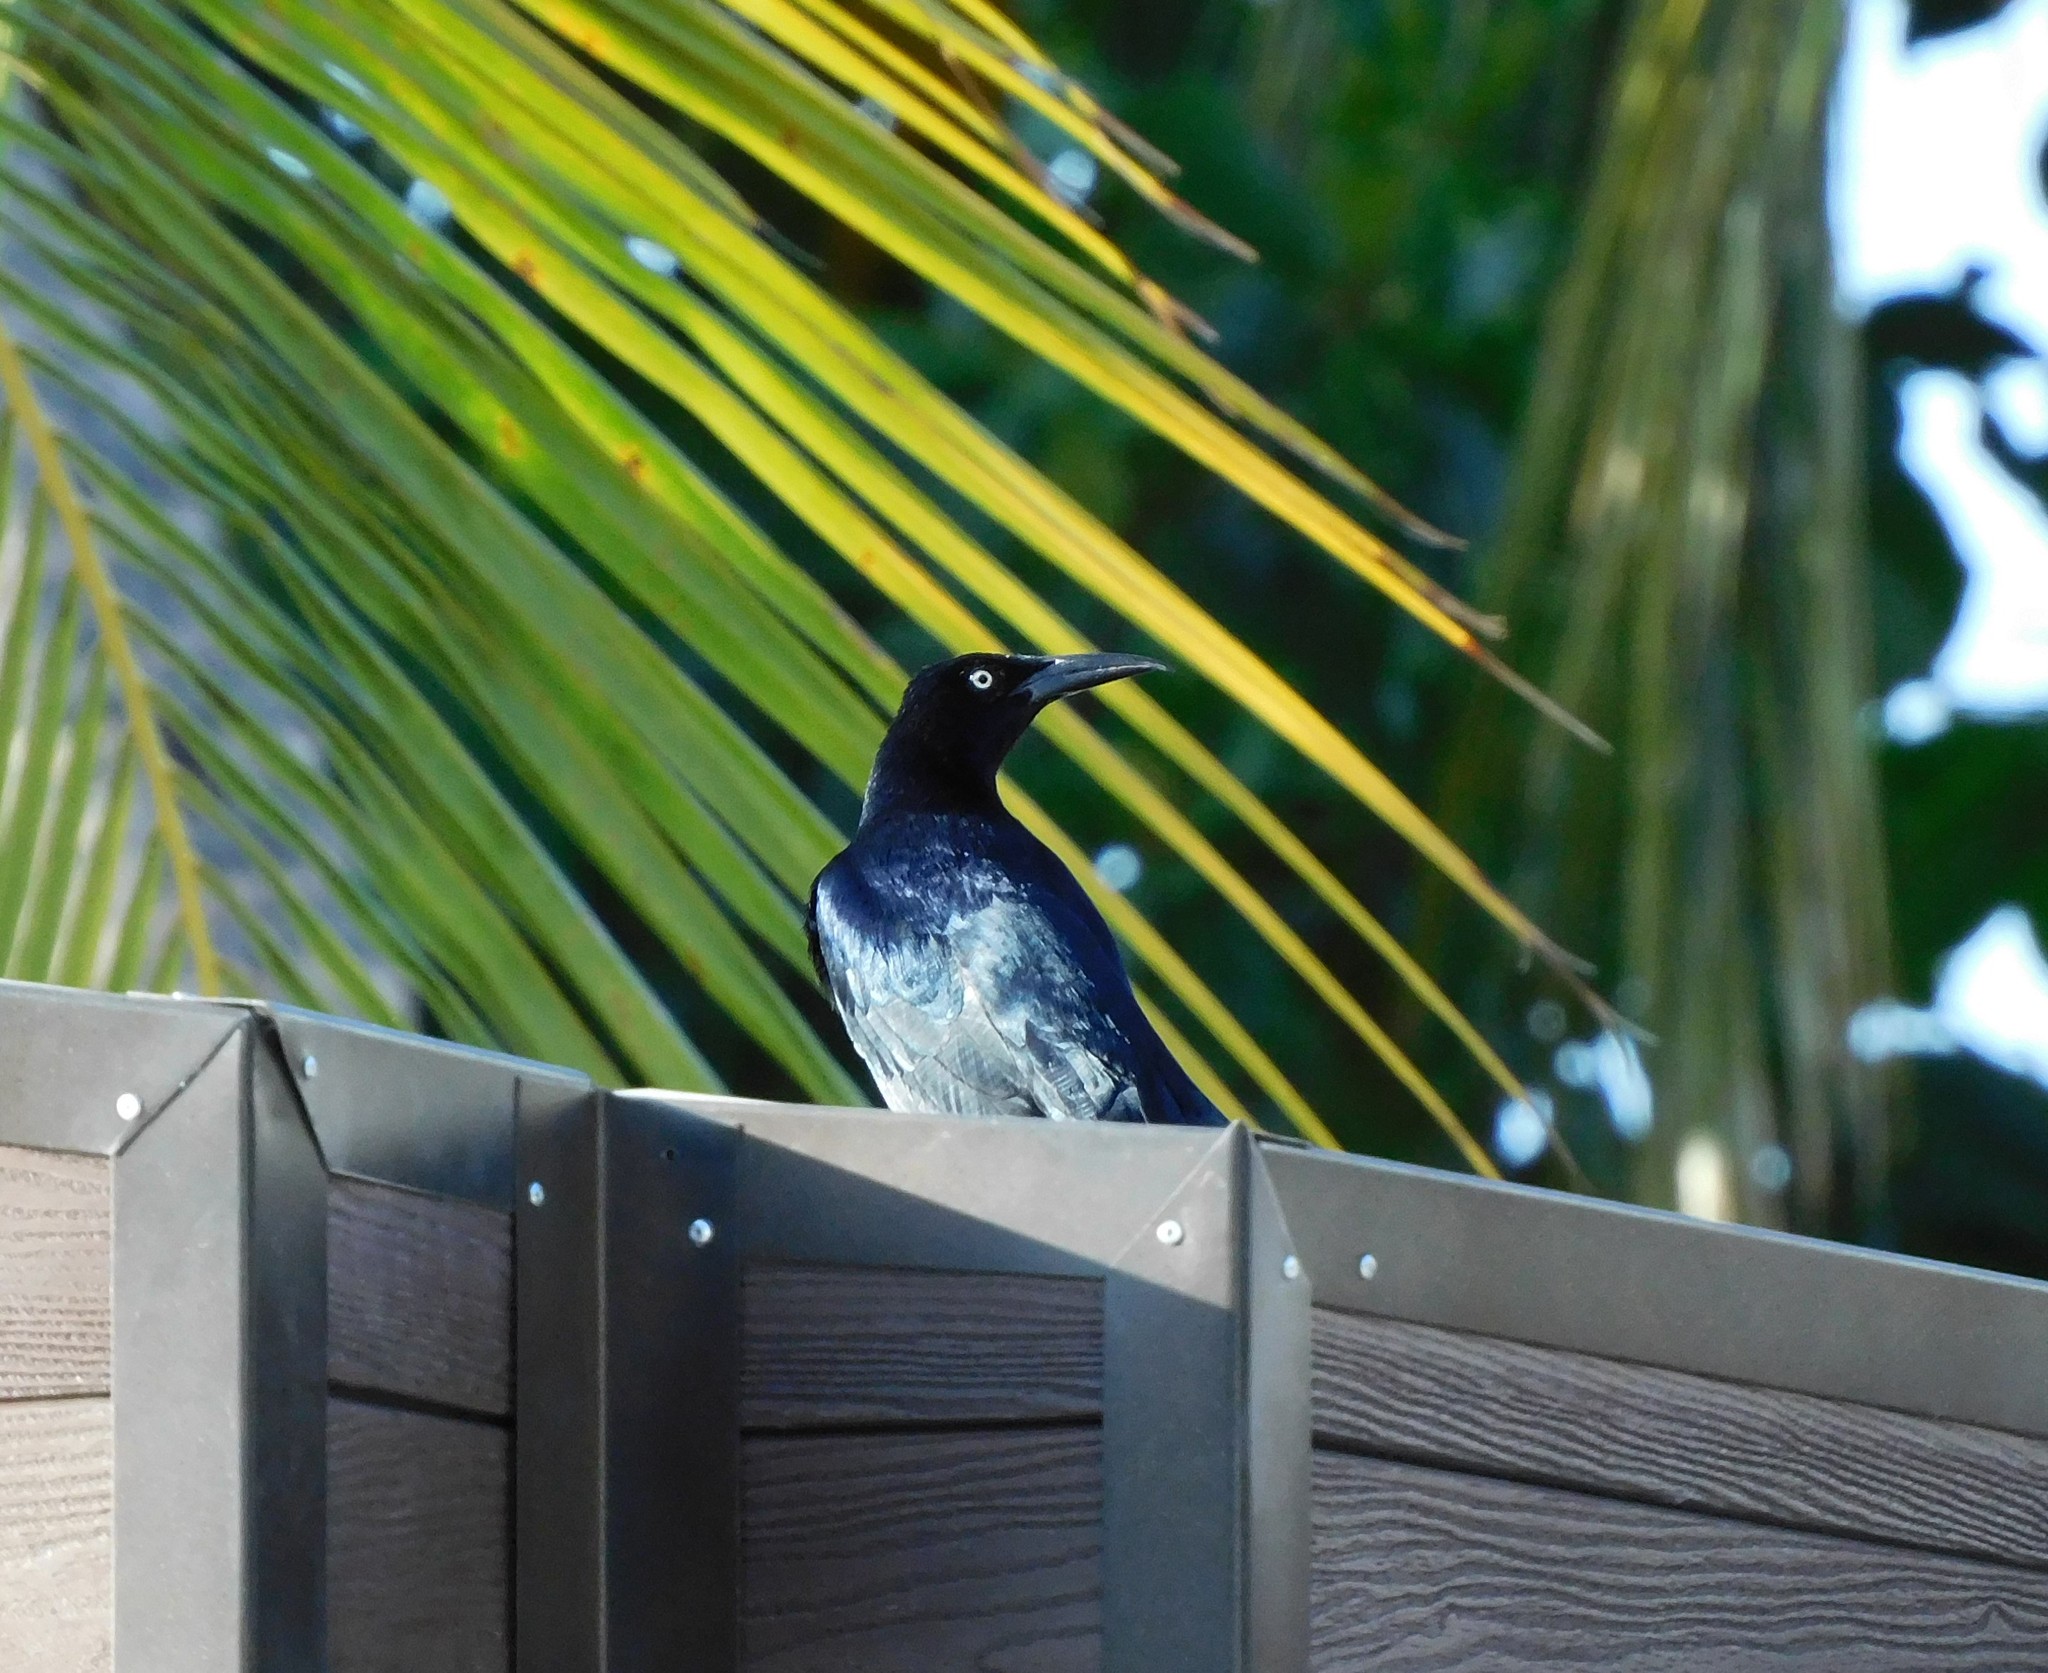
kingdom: Animalia
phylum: Chordata
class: Aves
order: Passeriformes
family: Icteridae
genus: Quiscalus
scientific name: Quiscalus mexicanus
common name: Great-tailed grackle
